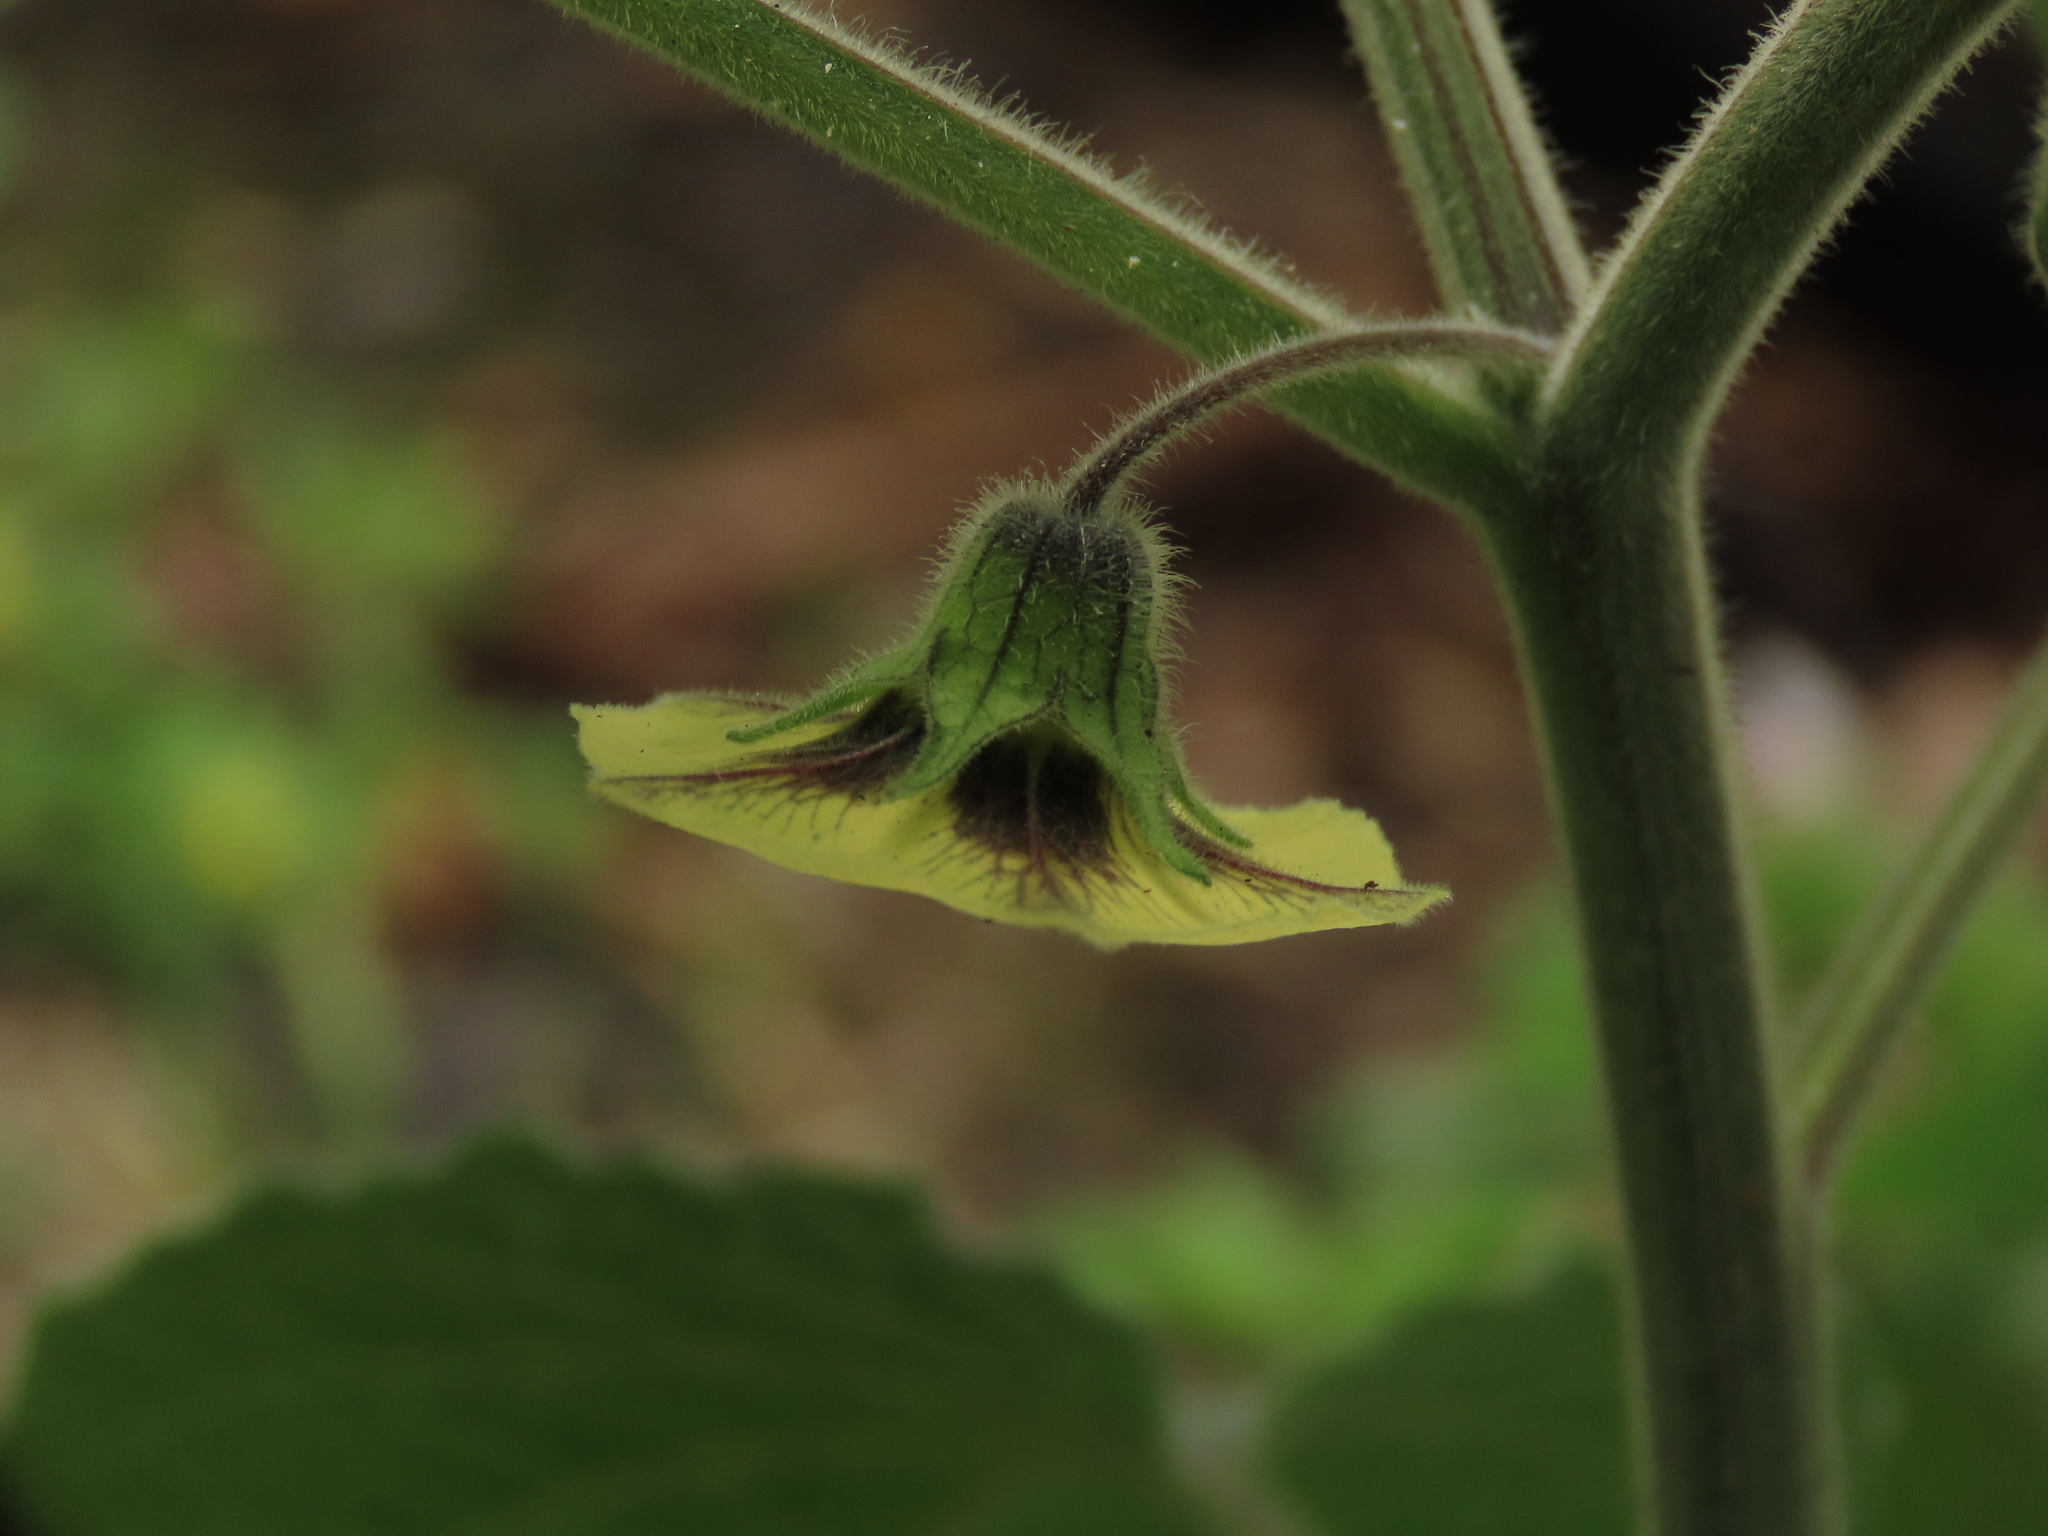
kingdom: Plantae
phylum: Tracheophyta
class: Magnoliopsida
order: Solanales
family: Solanaceae
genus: Physalis
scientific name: Physalis peruviana
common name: Cape-gooseberry
